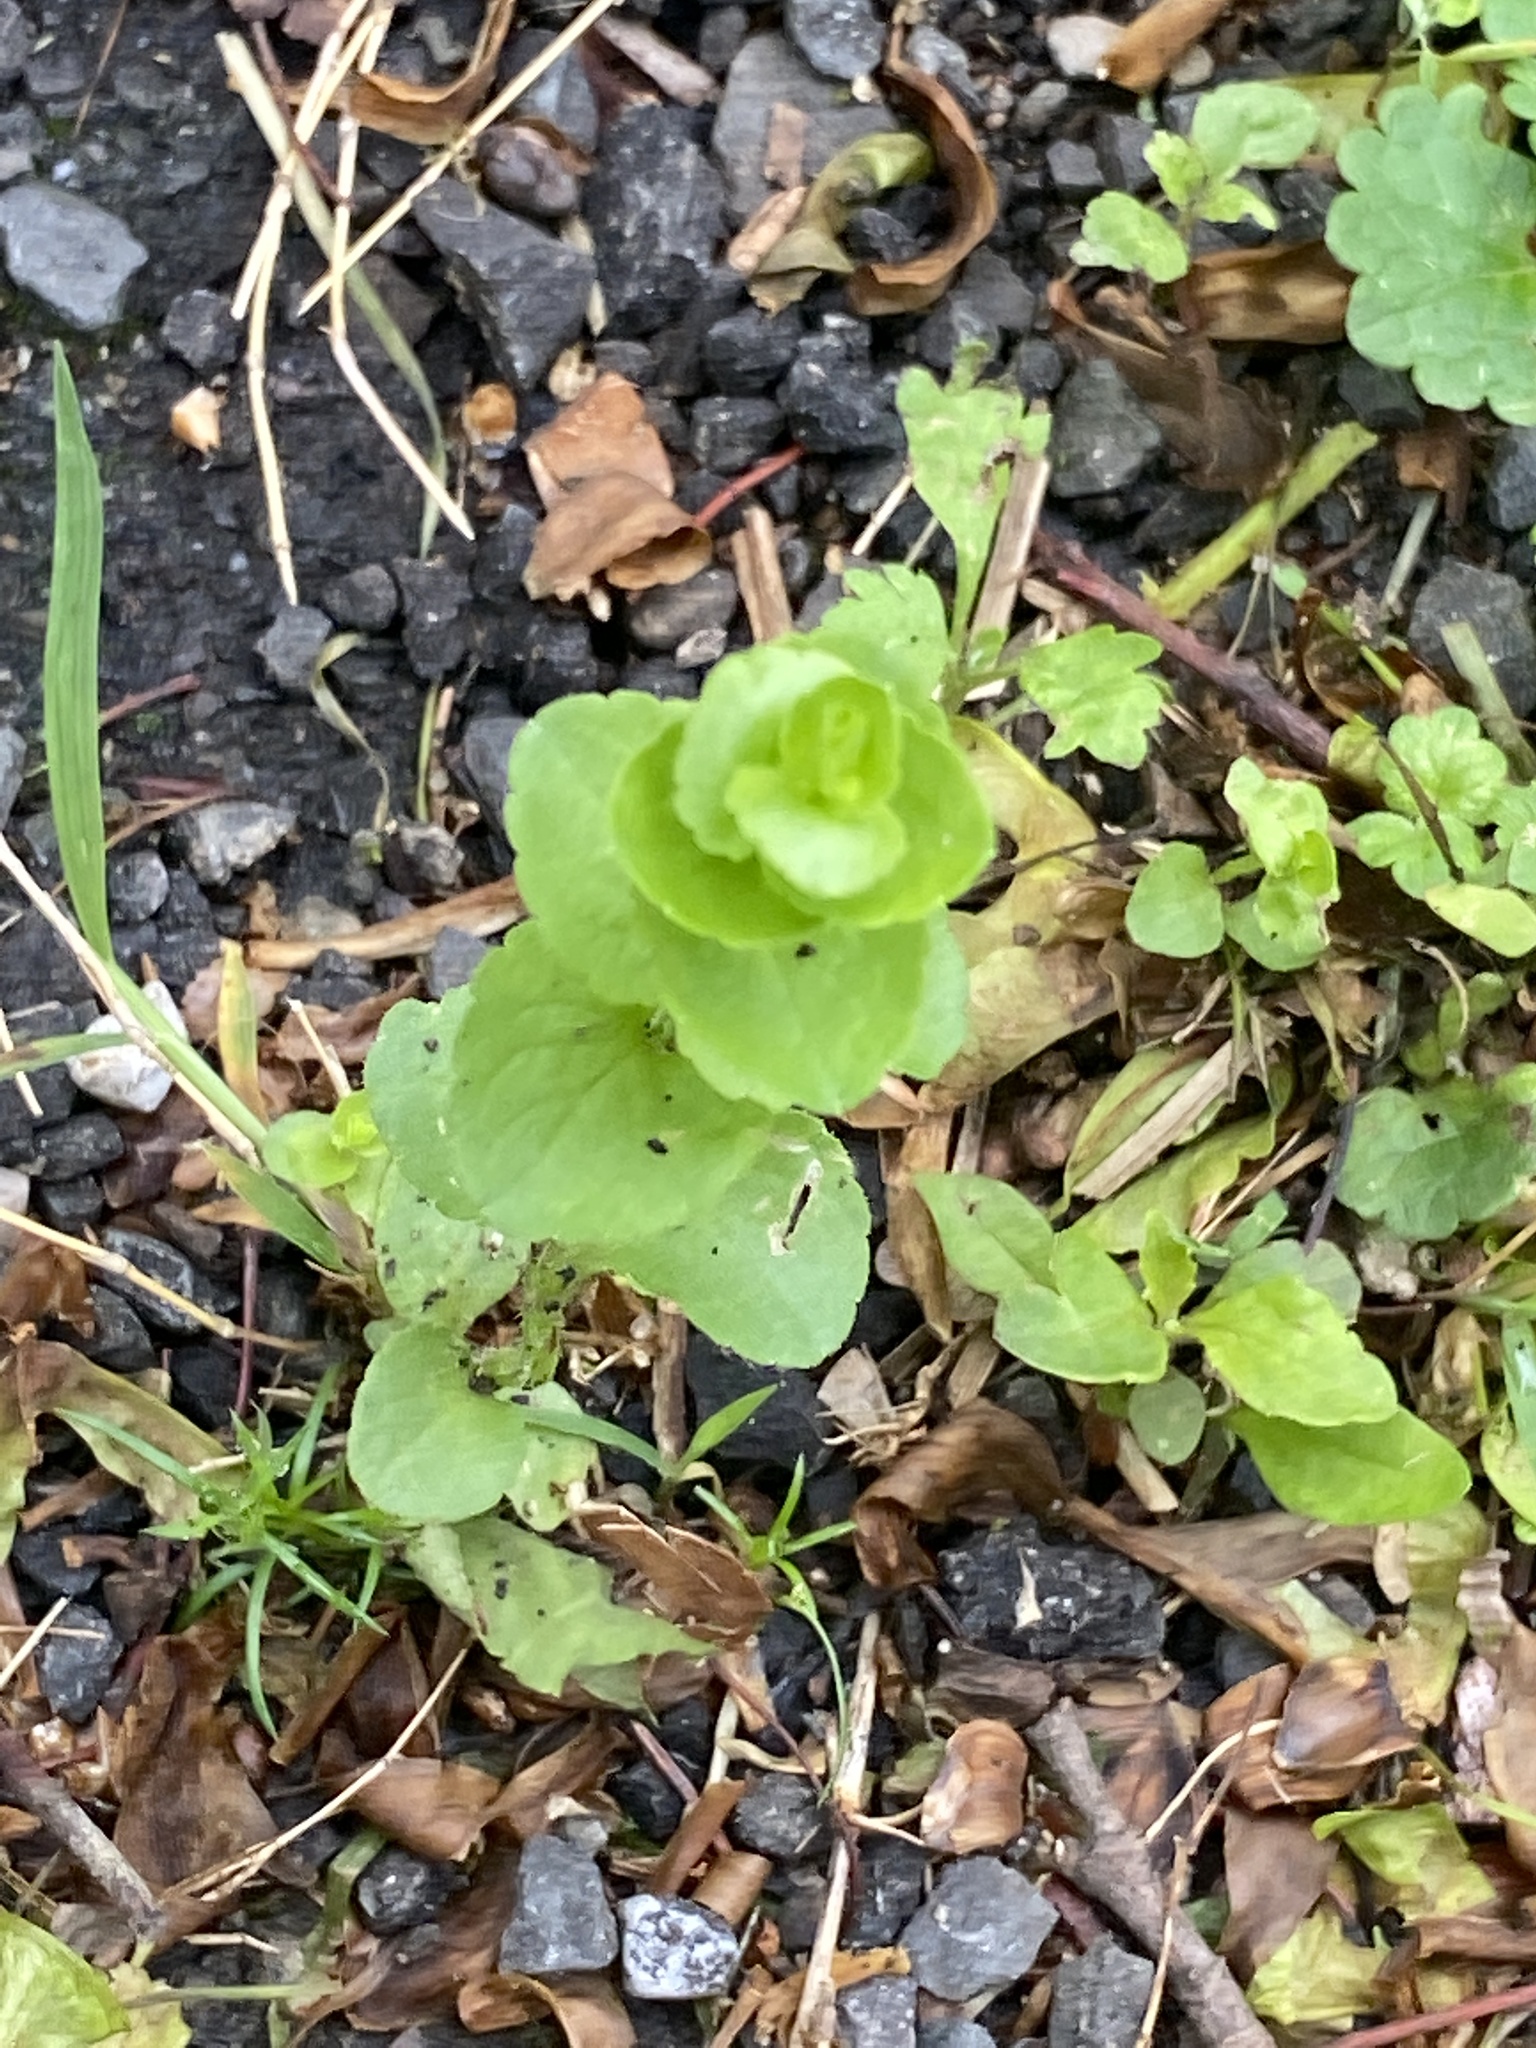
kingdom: Plantae
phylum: Tracheophyta
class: Magnoliopsida
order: Asterales
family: Campanulaceae
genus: Triodanis
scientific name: Triodanis perfoliata
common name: Clasping venus' looking-glass
